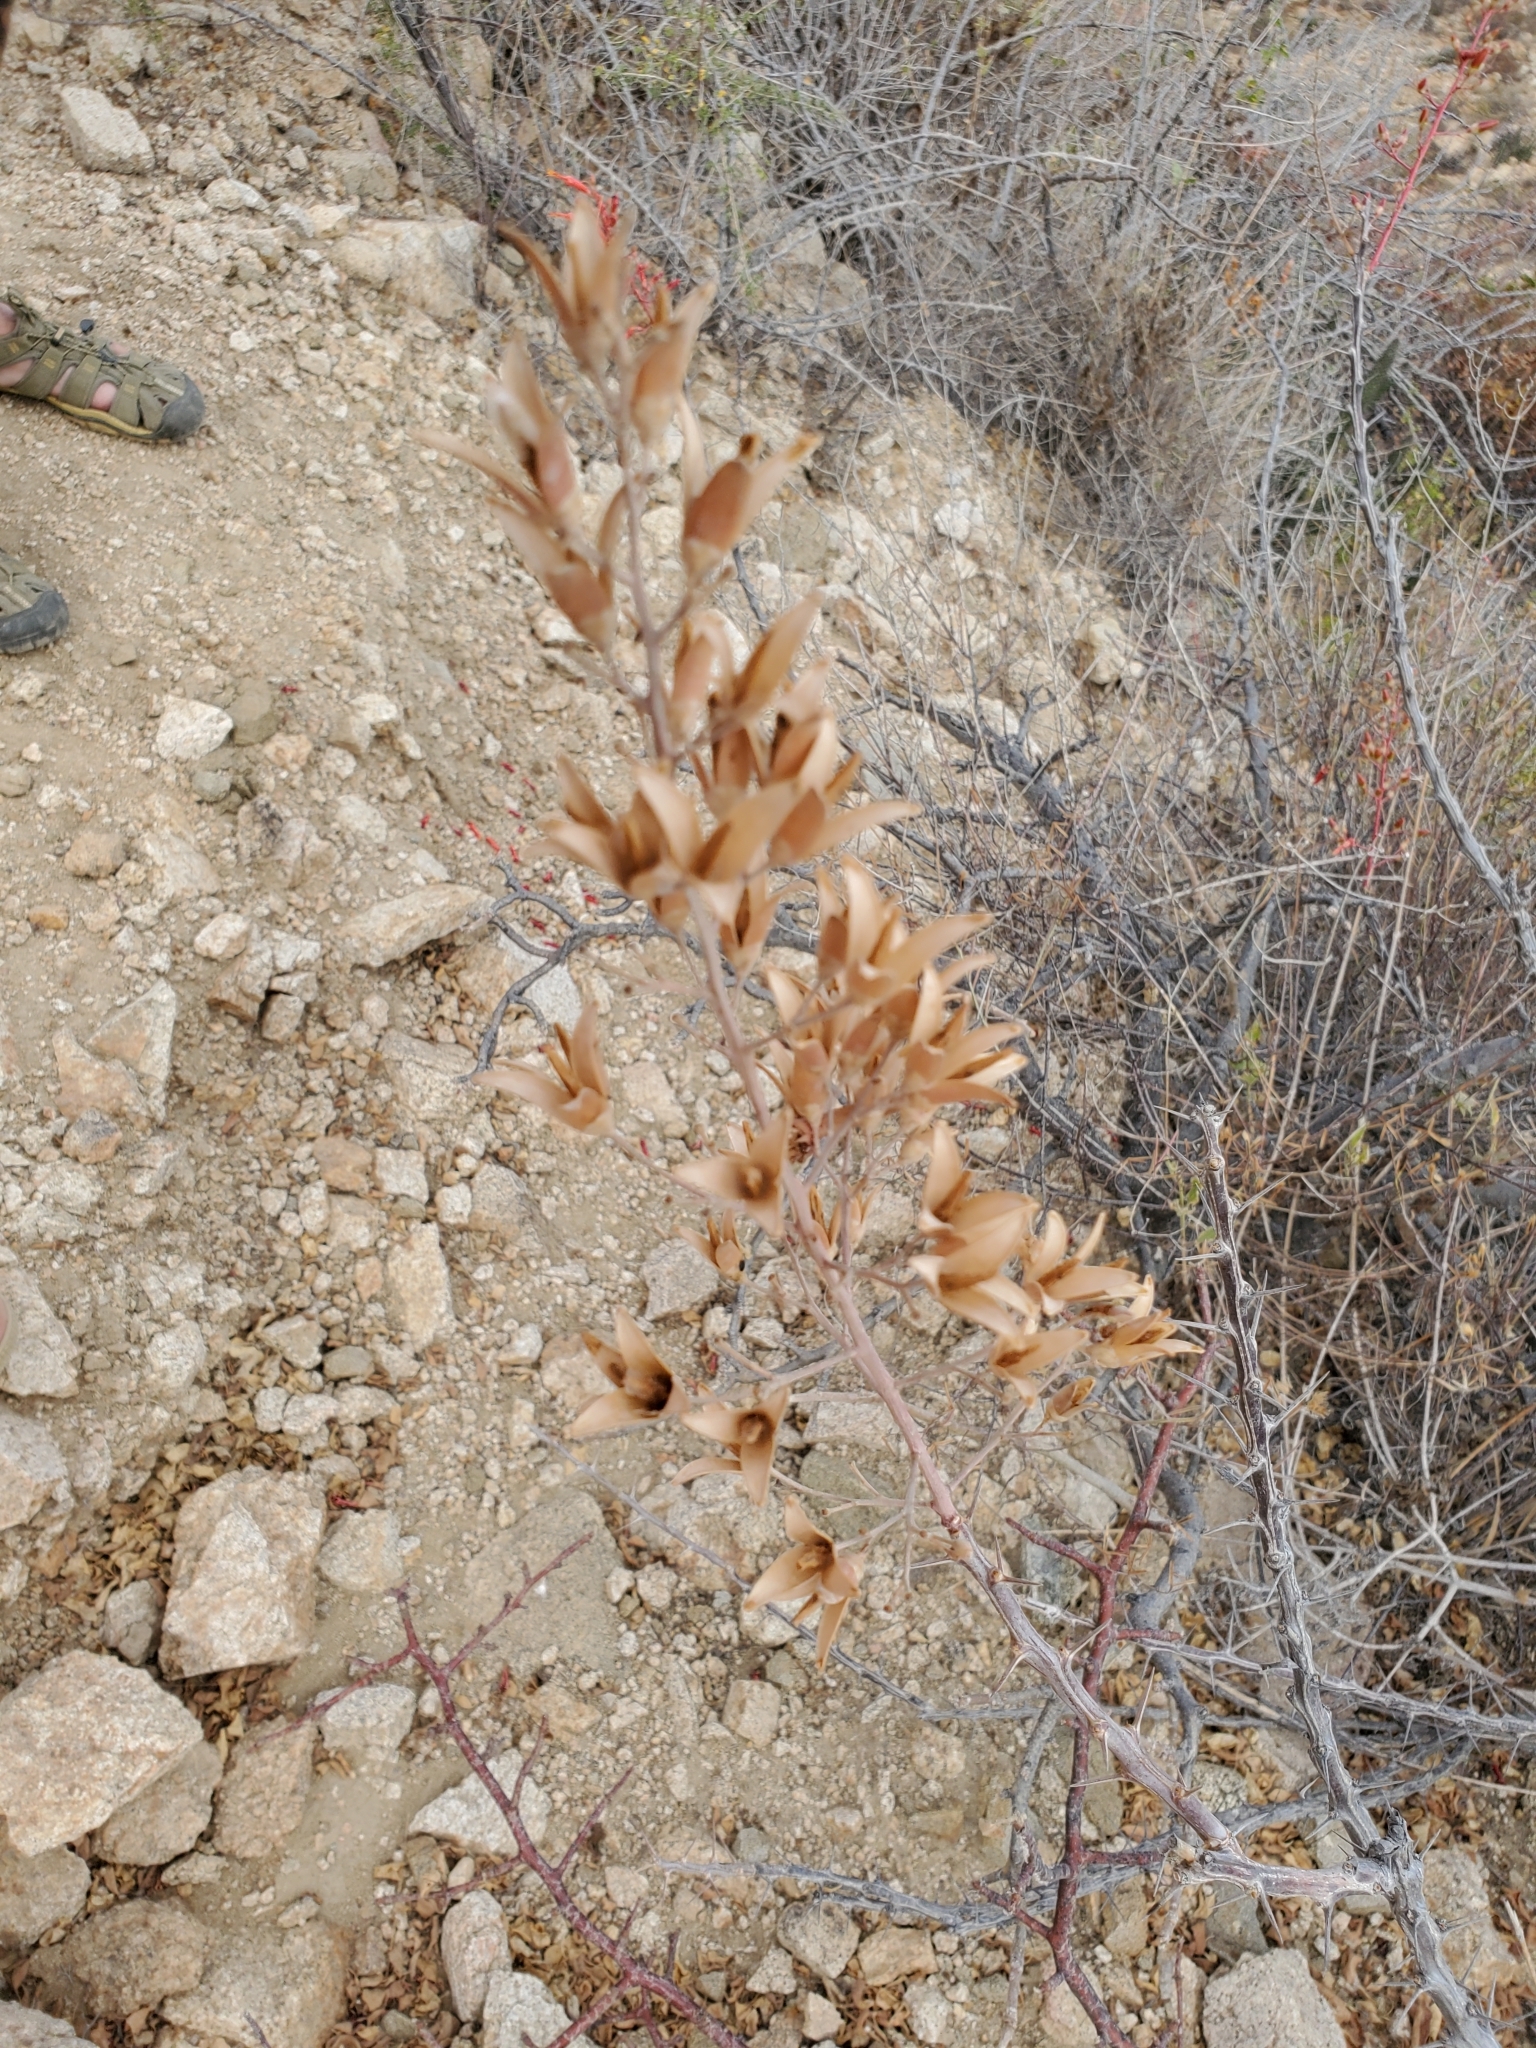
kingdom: Plantae
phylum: Tracheophyta
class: Magnoliopsida
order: Ericales
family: Fouquieriaceae
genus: Fouquieria
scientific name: Fouquieria diguetii
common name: Adam's tree
